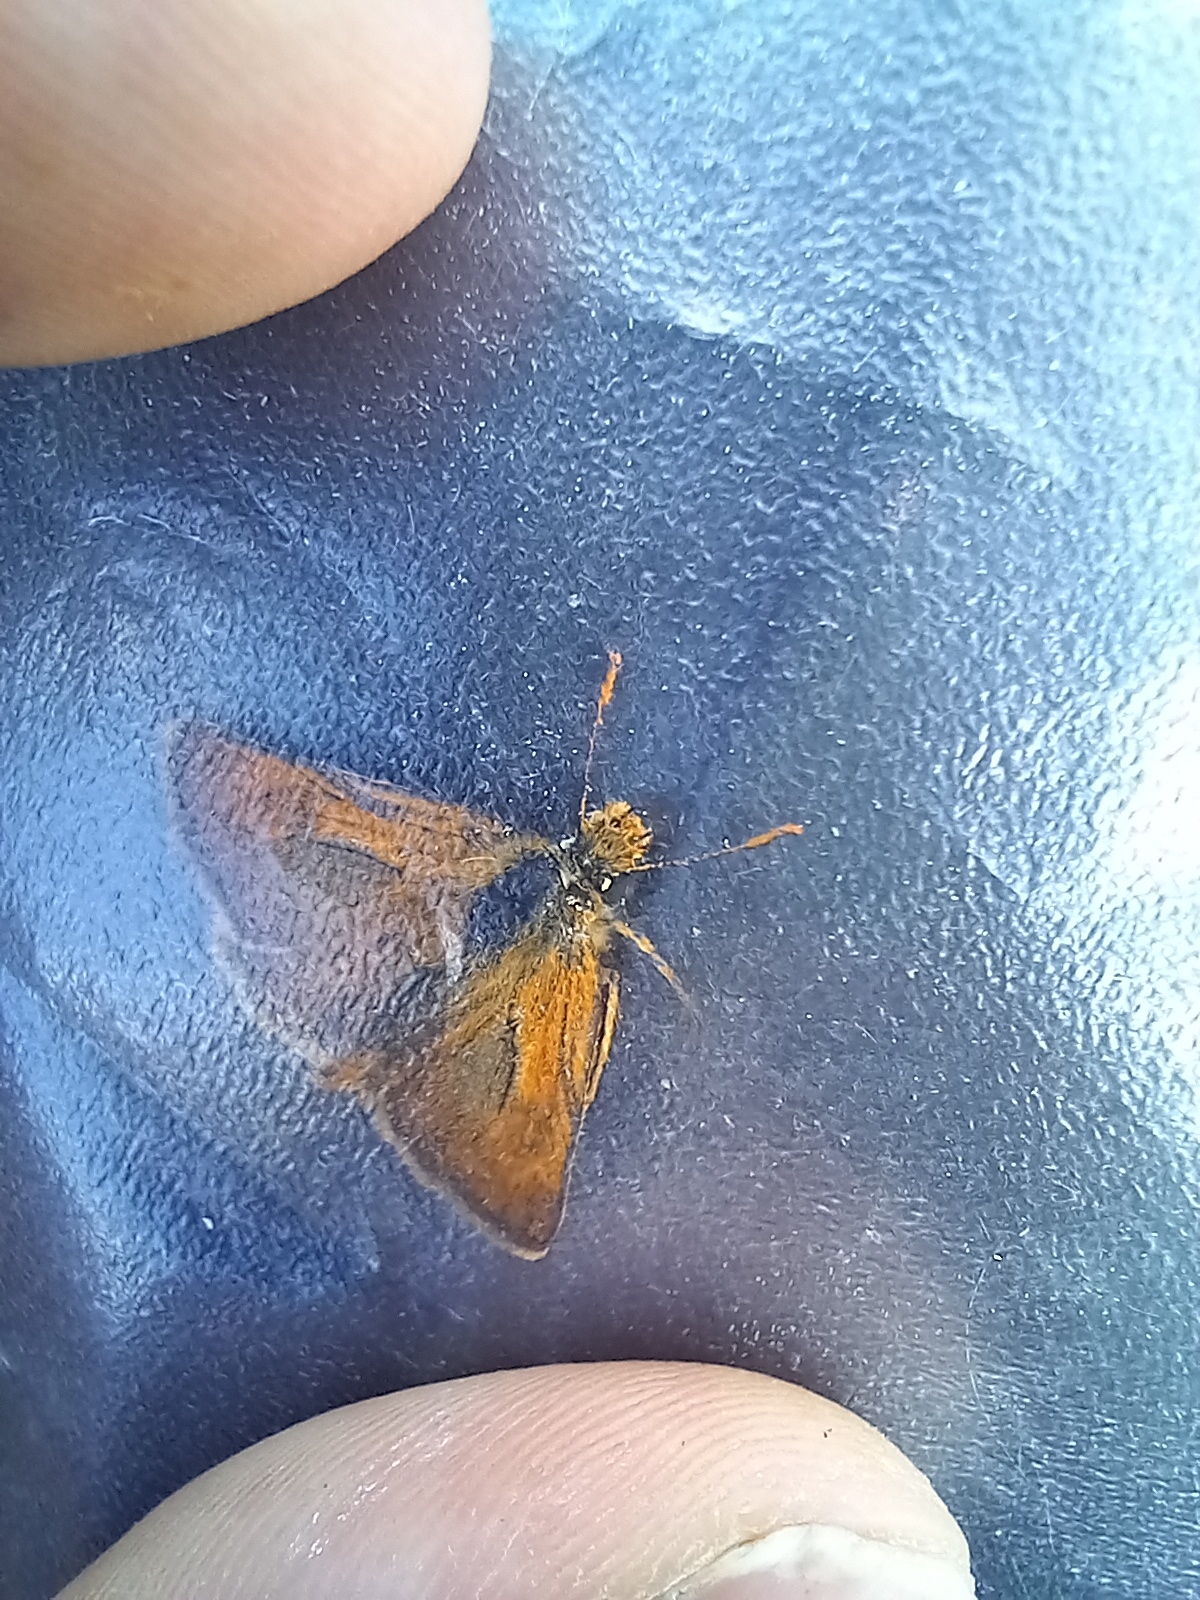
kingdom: Animalia
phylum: Arthropoda
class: Insecta
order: Lepidoptera
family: Hesperiidae
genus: Thymelicus
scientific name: Thymelicus acteon
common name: Lulworth skipper
